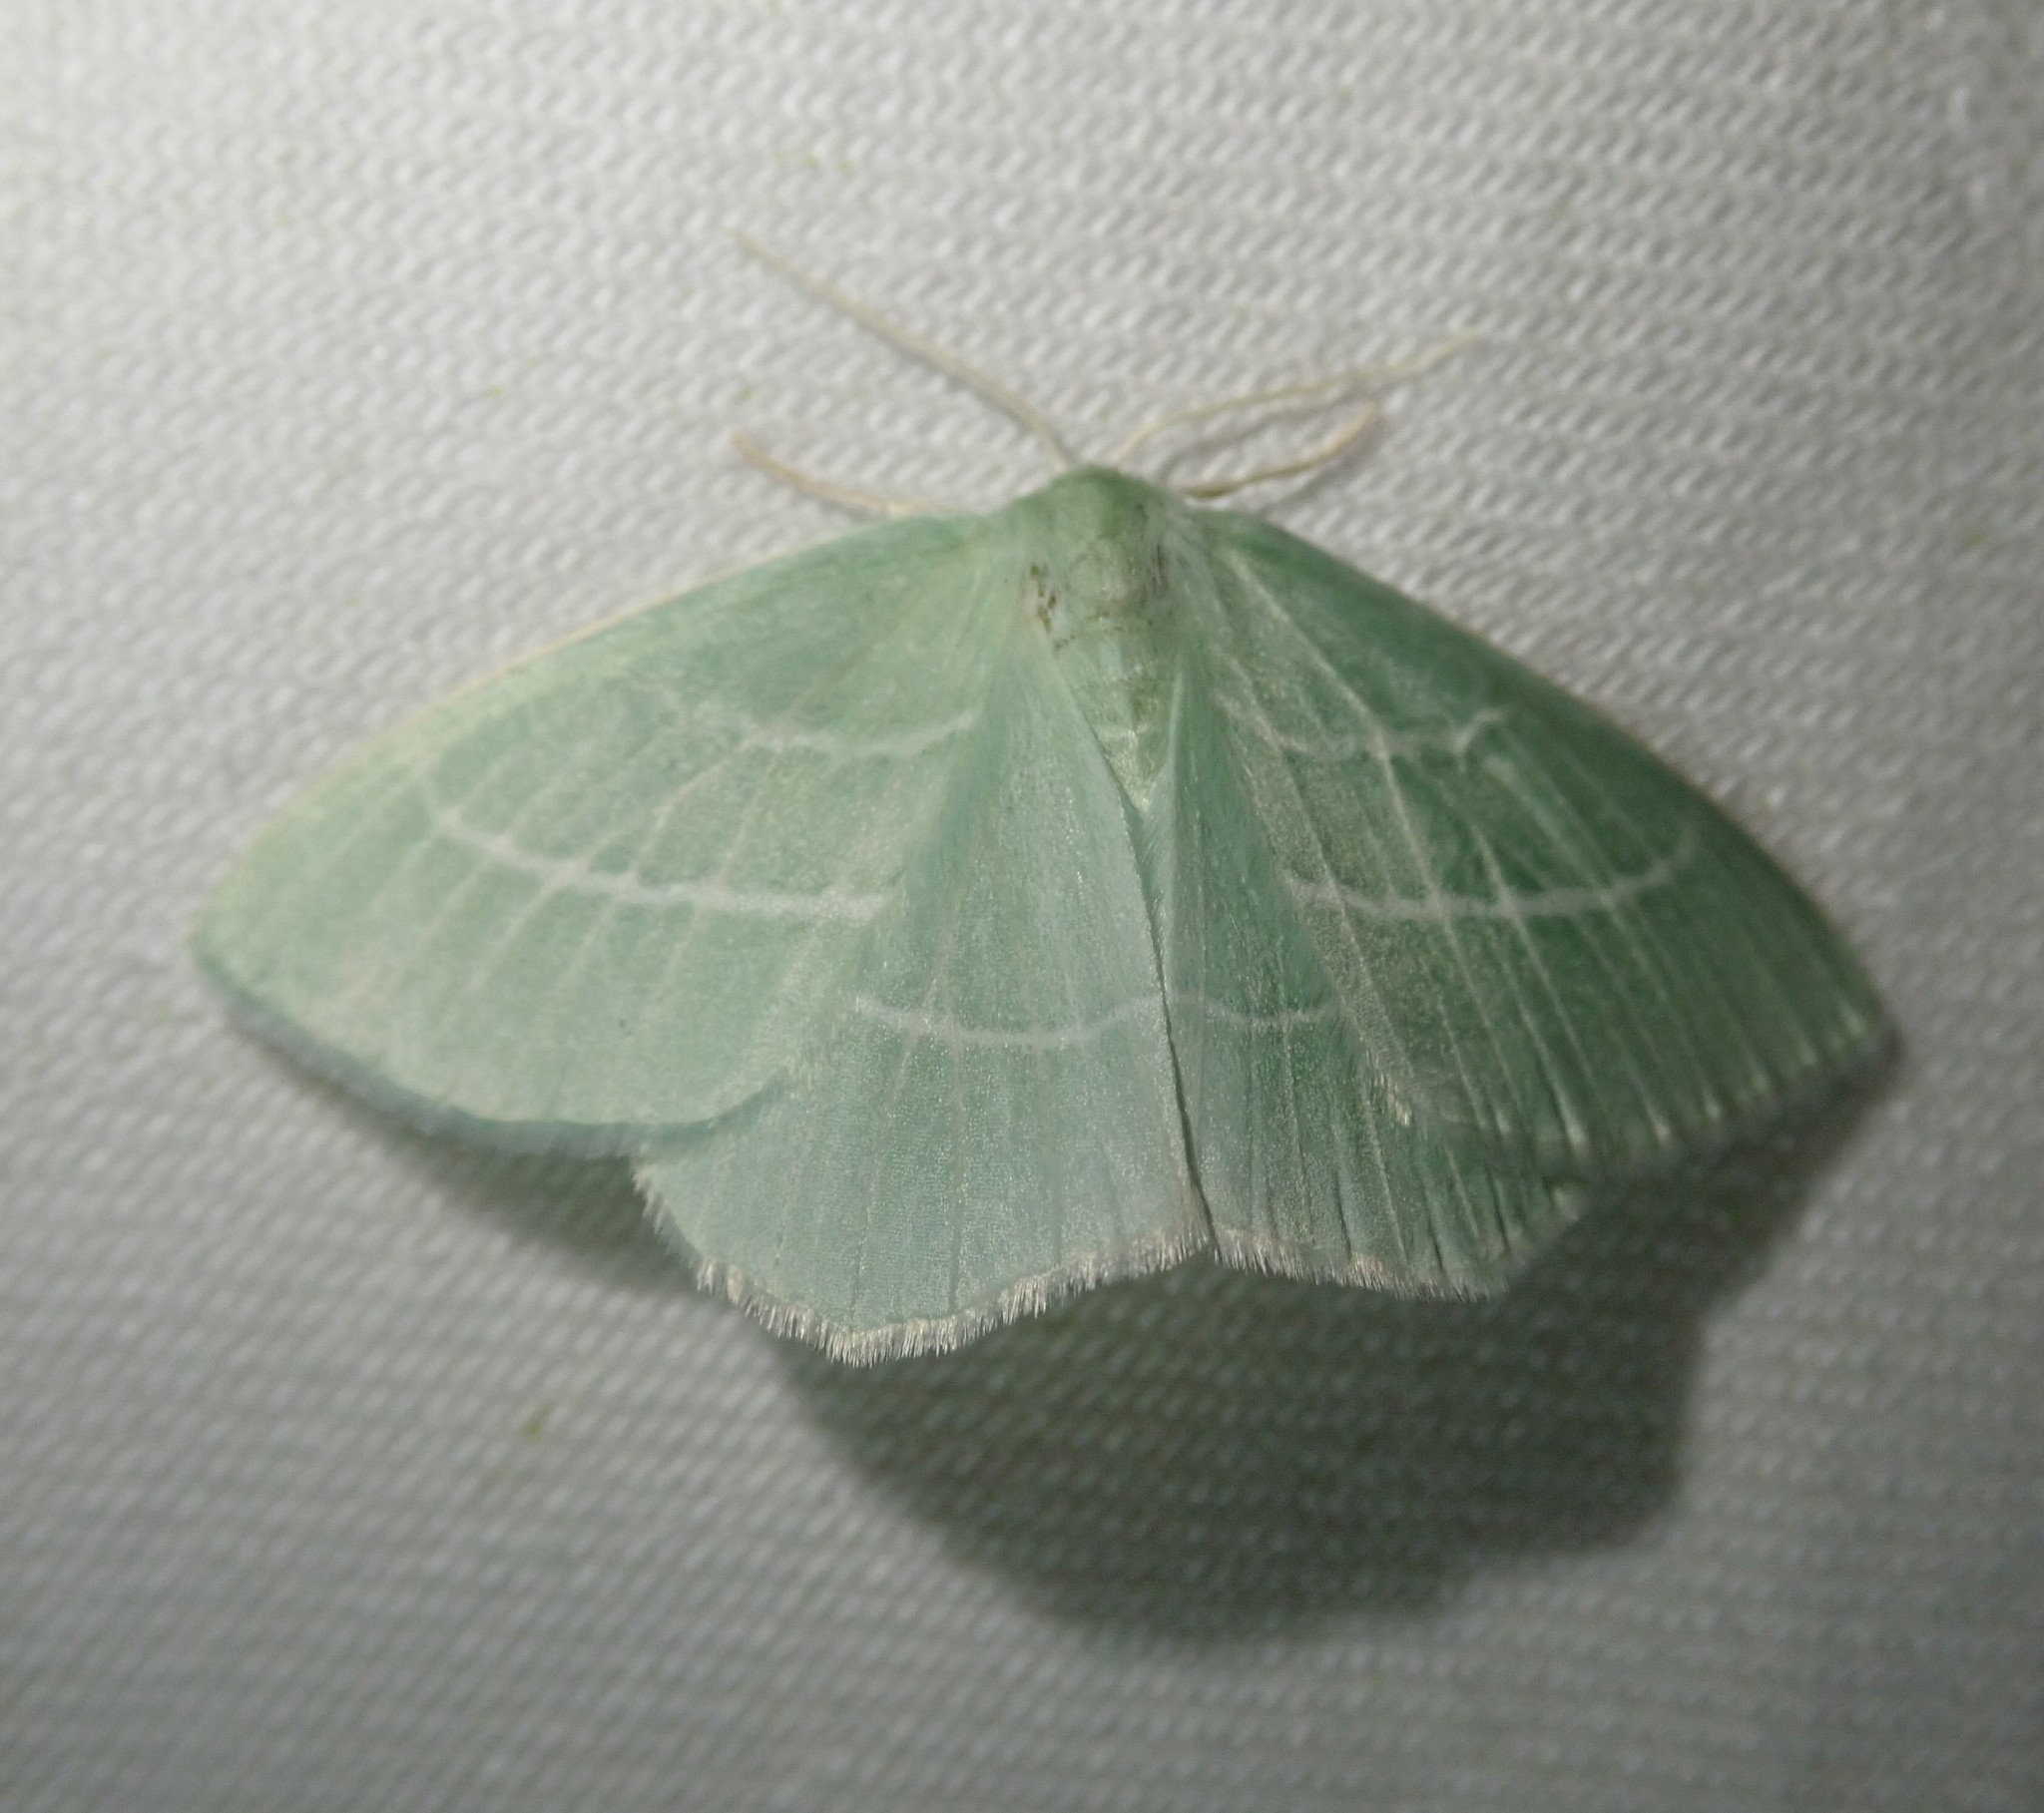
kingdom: Animalia
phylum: Arthropoda
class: Insecta
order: Lepidoptera
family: Geometridae
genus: Hemistola
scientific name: Hemistola chrysoprasaria
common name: Small emerald
